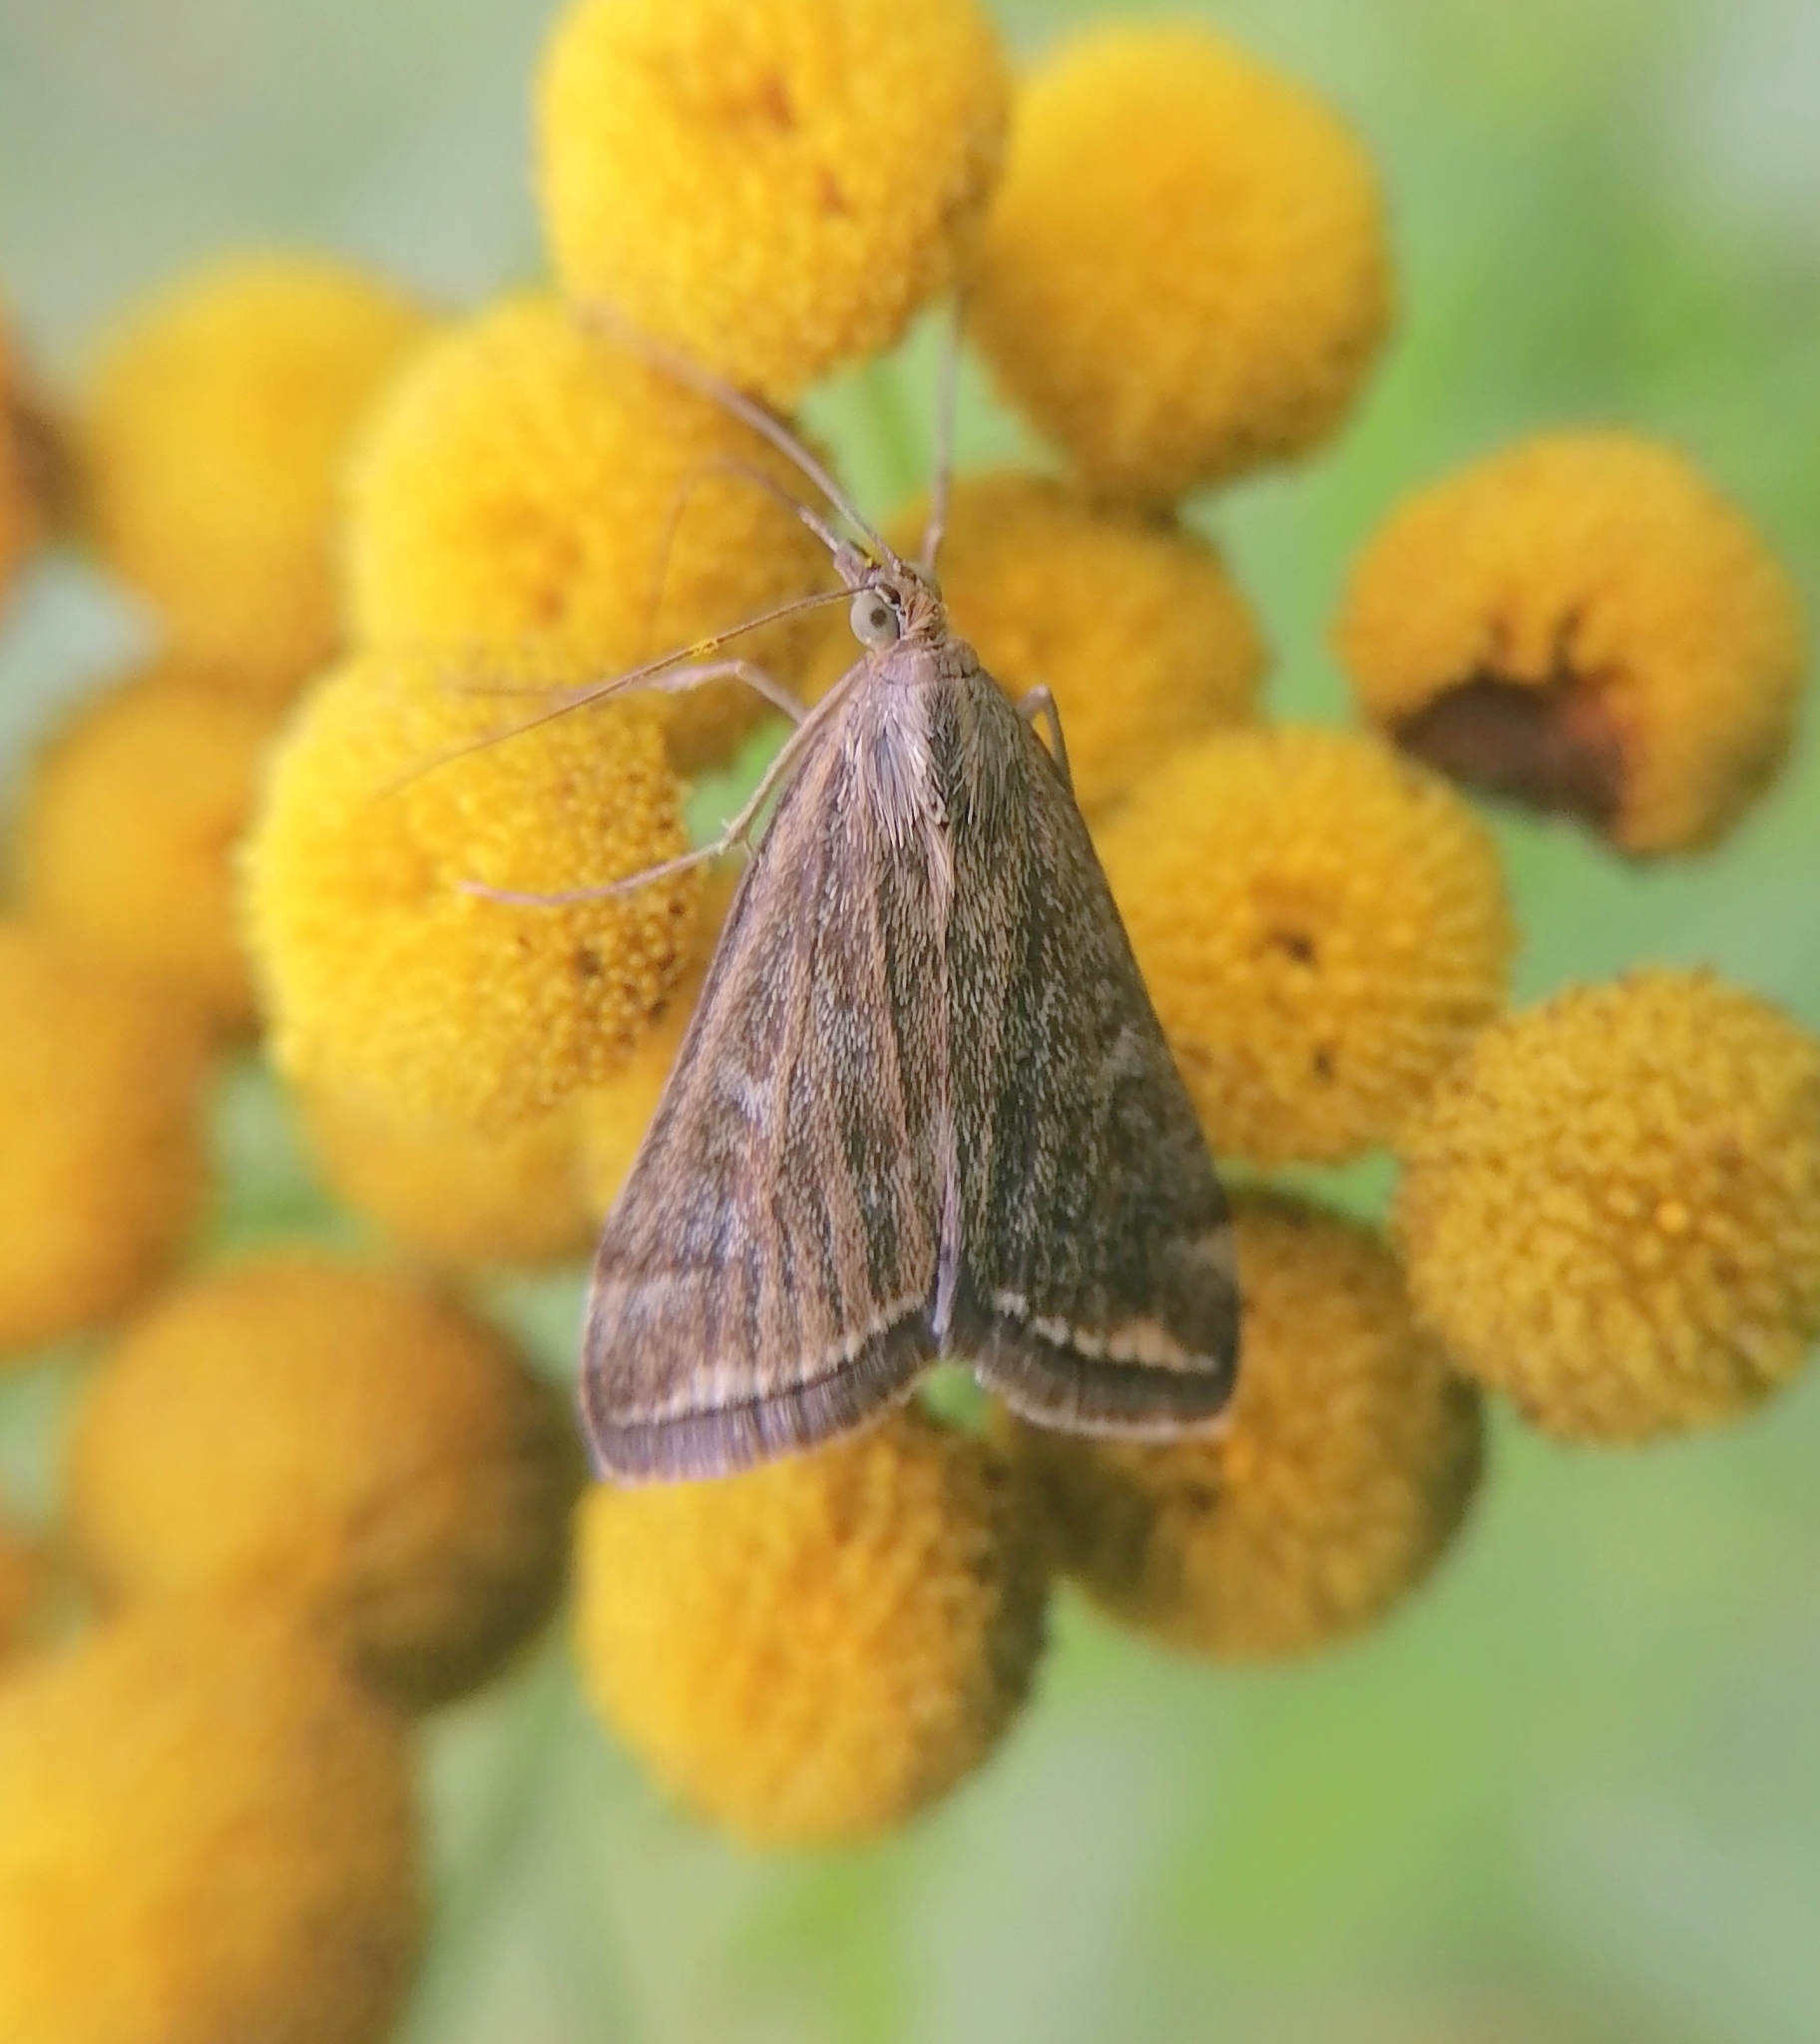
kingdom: Animalia
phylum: Arthropoda
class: Insecta
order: Lepidoptera
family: Crambidae
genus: Loxostege
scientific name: Loxostege sticticalis
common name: Crambid moth
